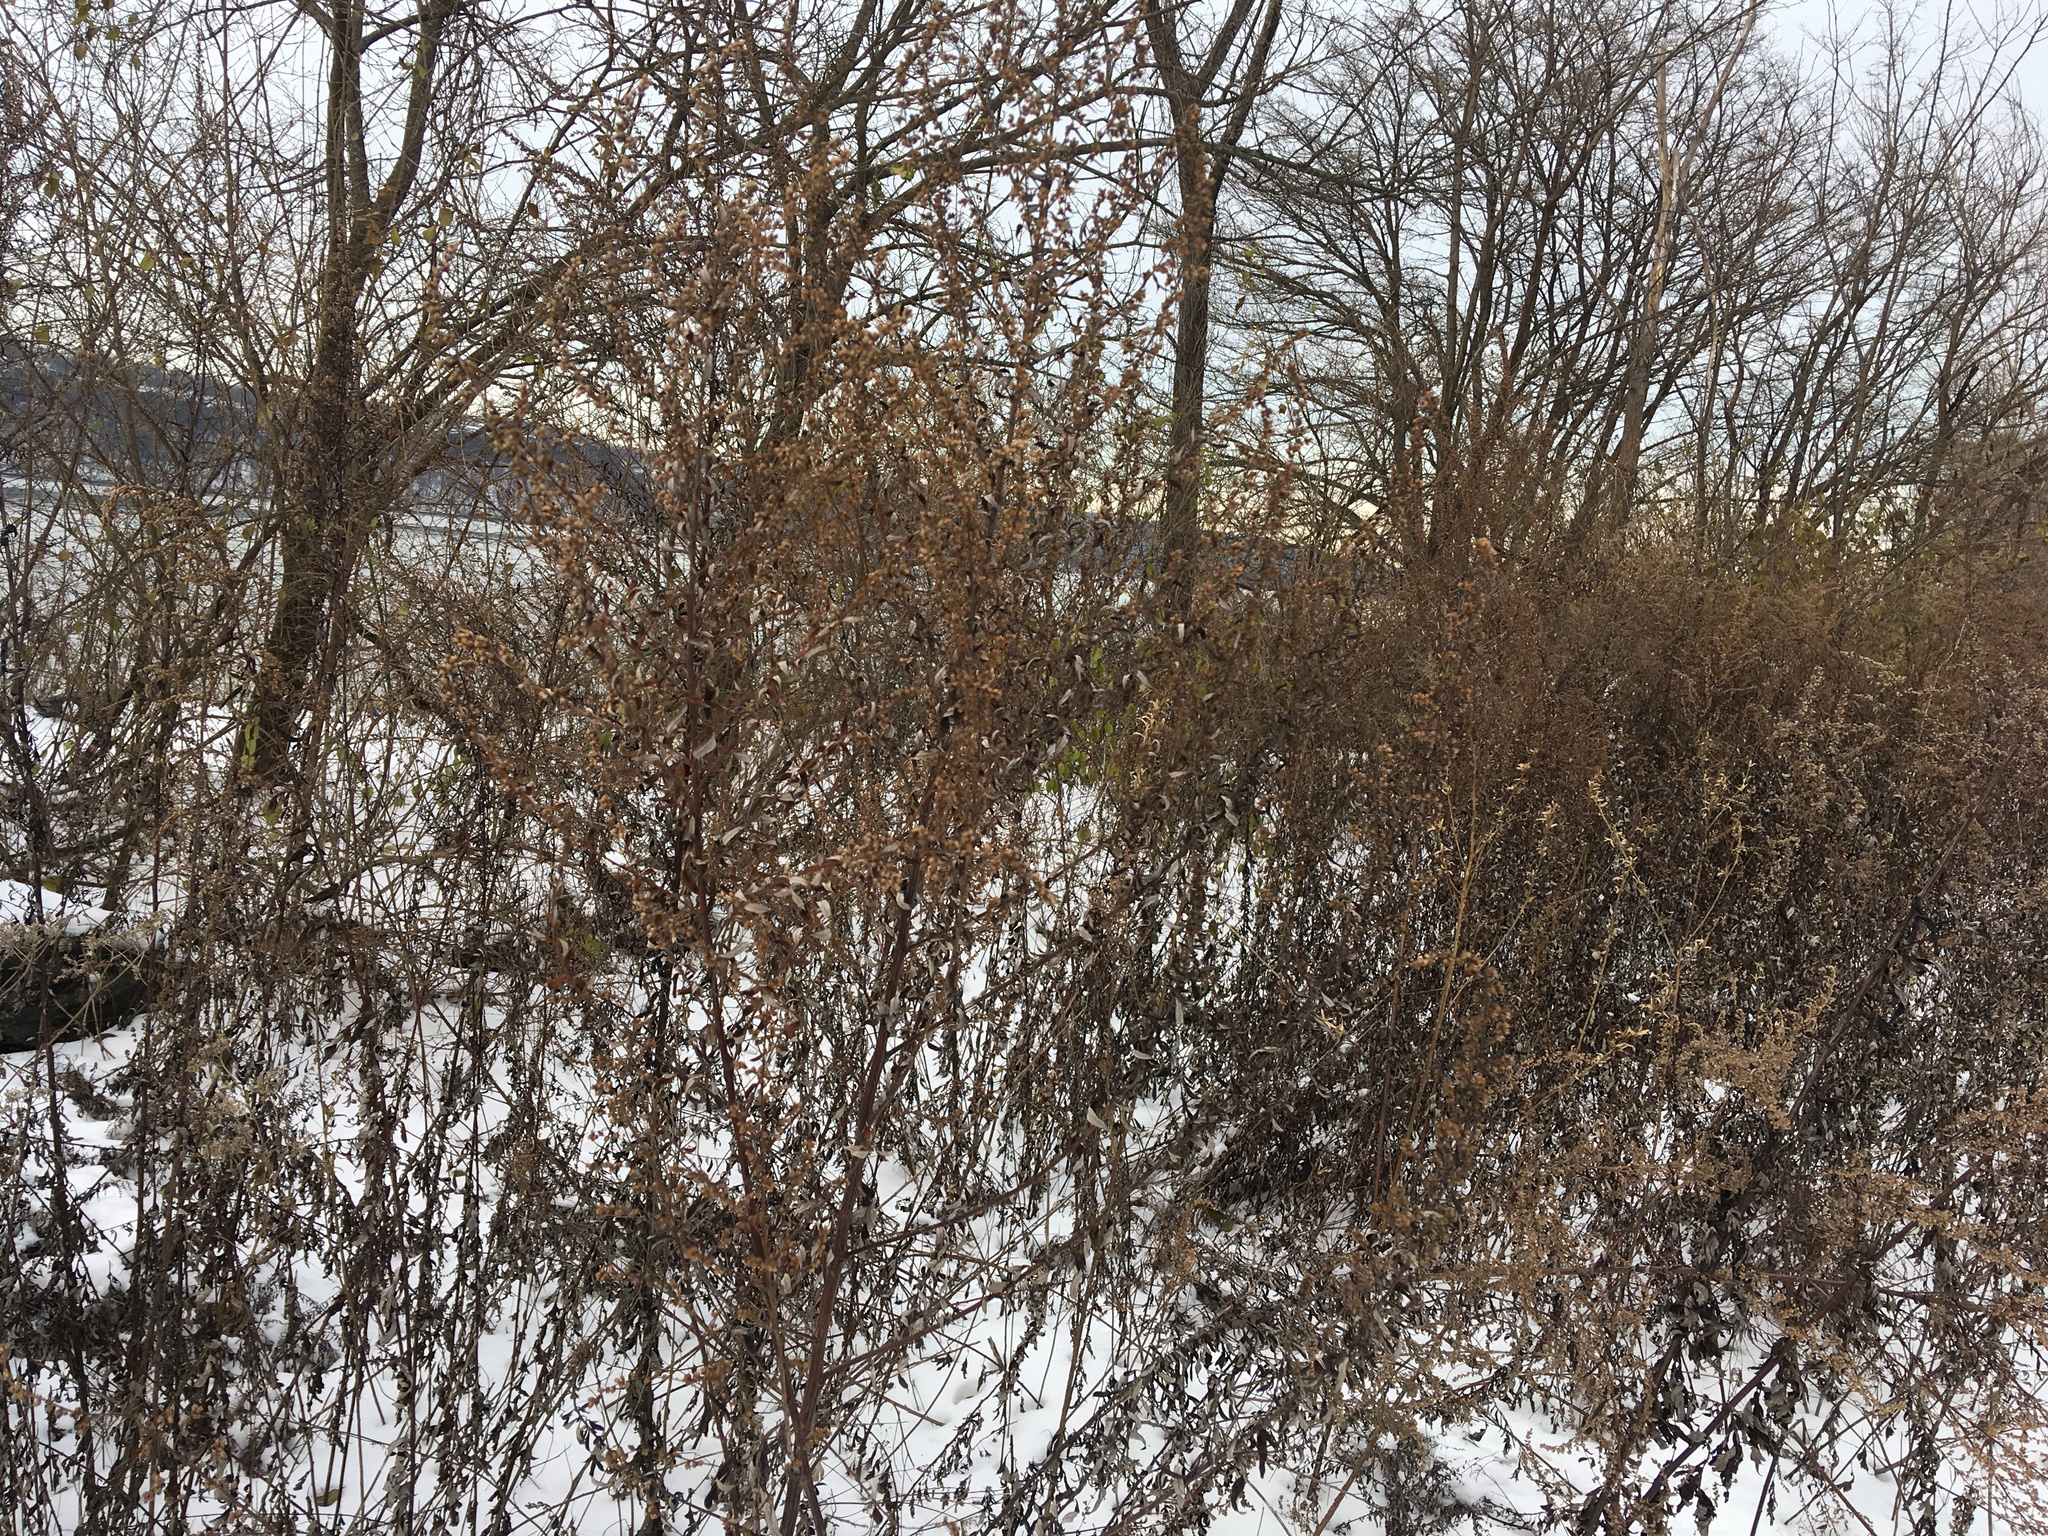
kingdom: Plantae
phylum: Tracheophyta
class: Magnoliopsida
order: Asterales
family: Asteraceae
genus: Artemisia
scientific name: Artemisia vulgaris
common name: Mugwort
